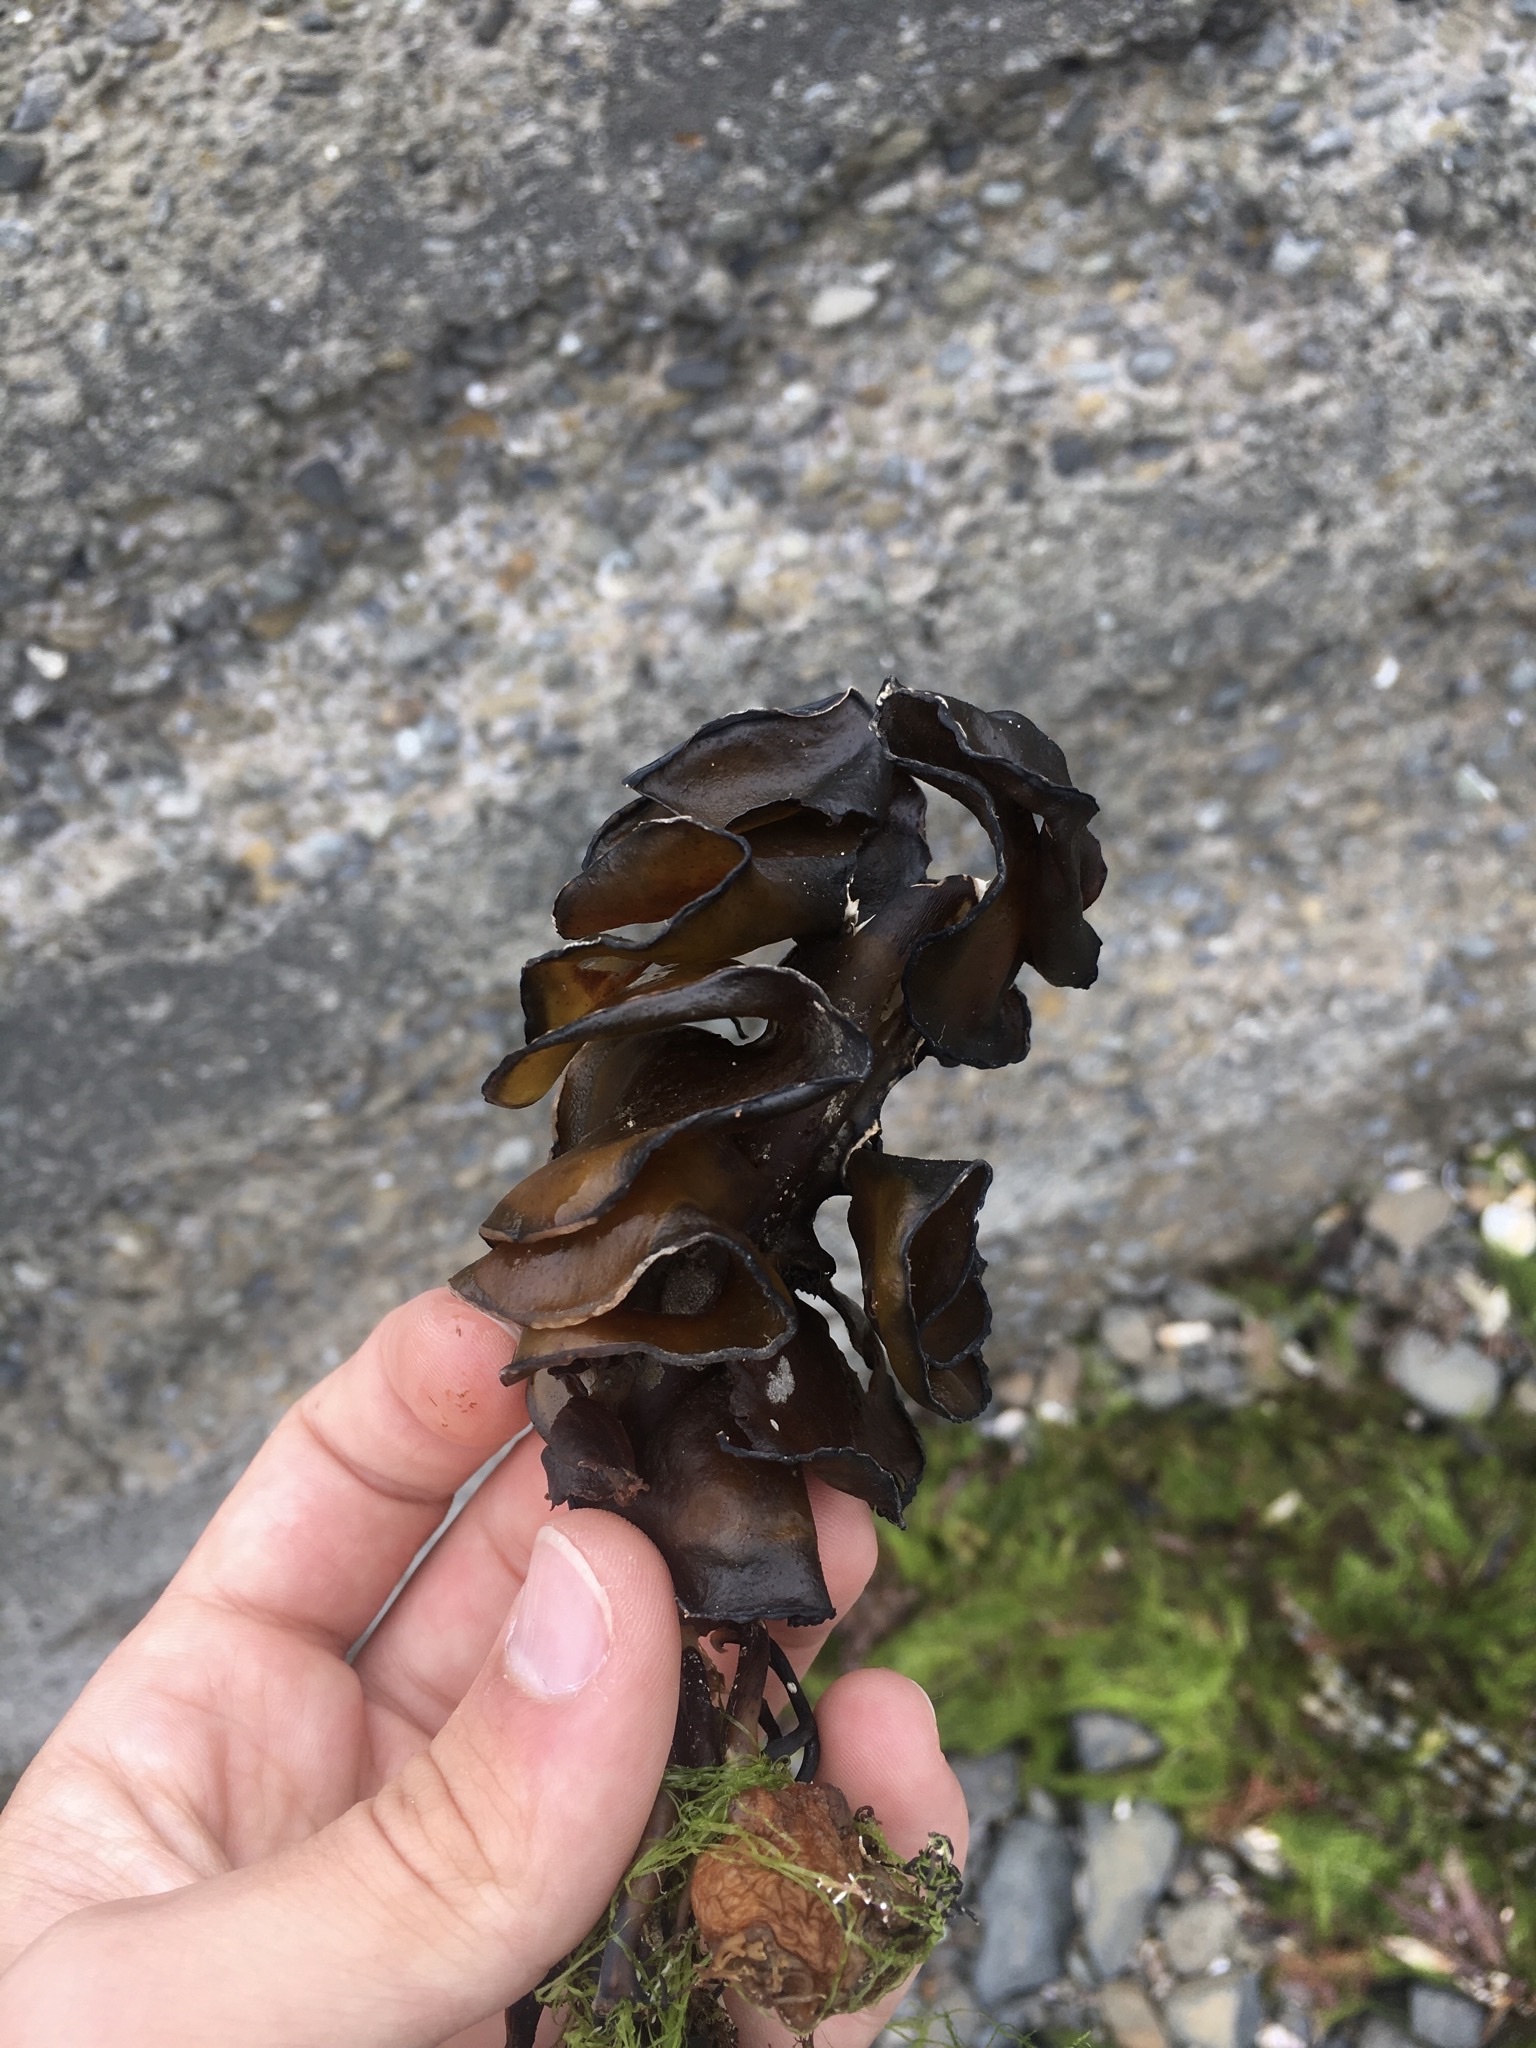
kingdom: Chromista
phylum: Ochrophyta
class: Phaeophyceae
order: Laminariales
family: Alariaceae
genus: Undaria
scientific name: Undaria pinnatifida
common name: Asian kelp
